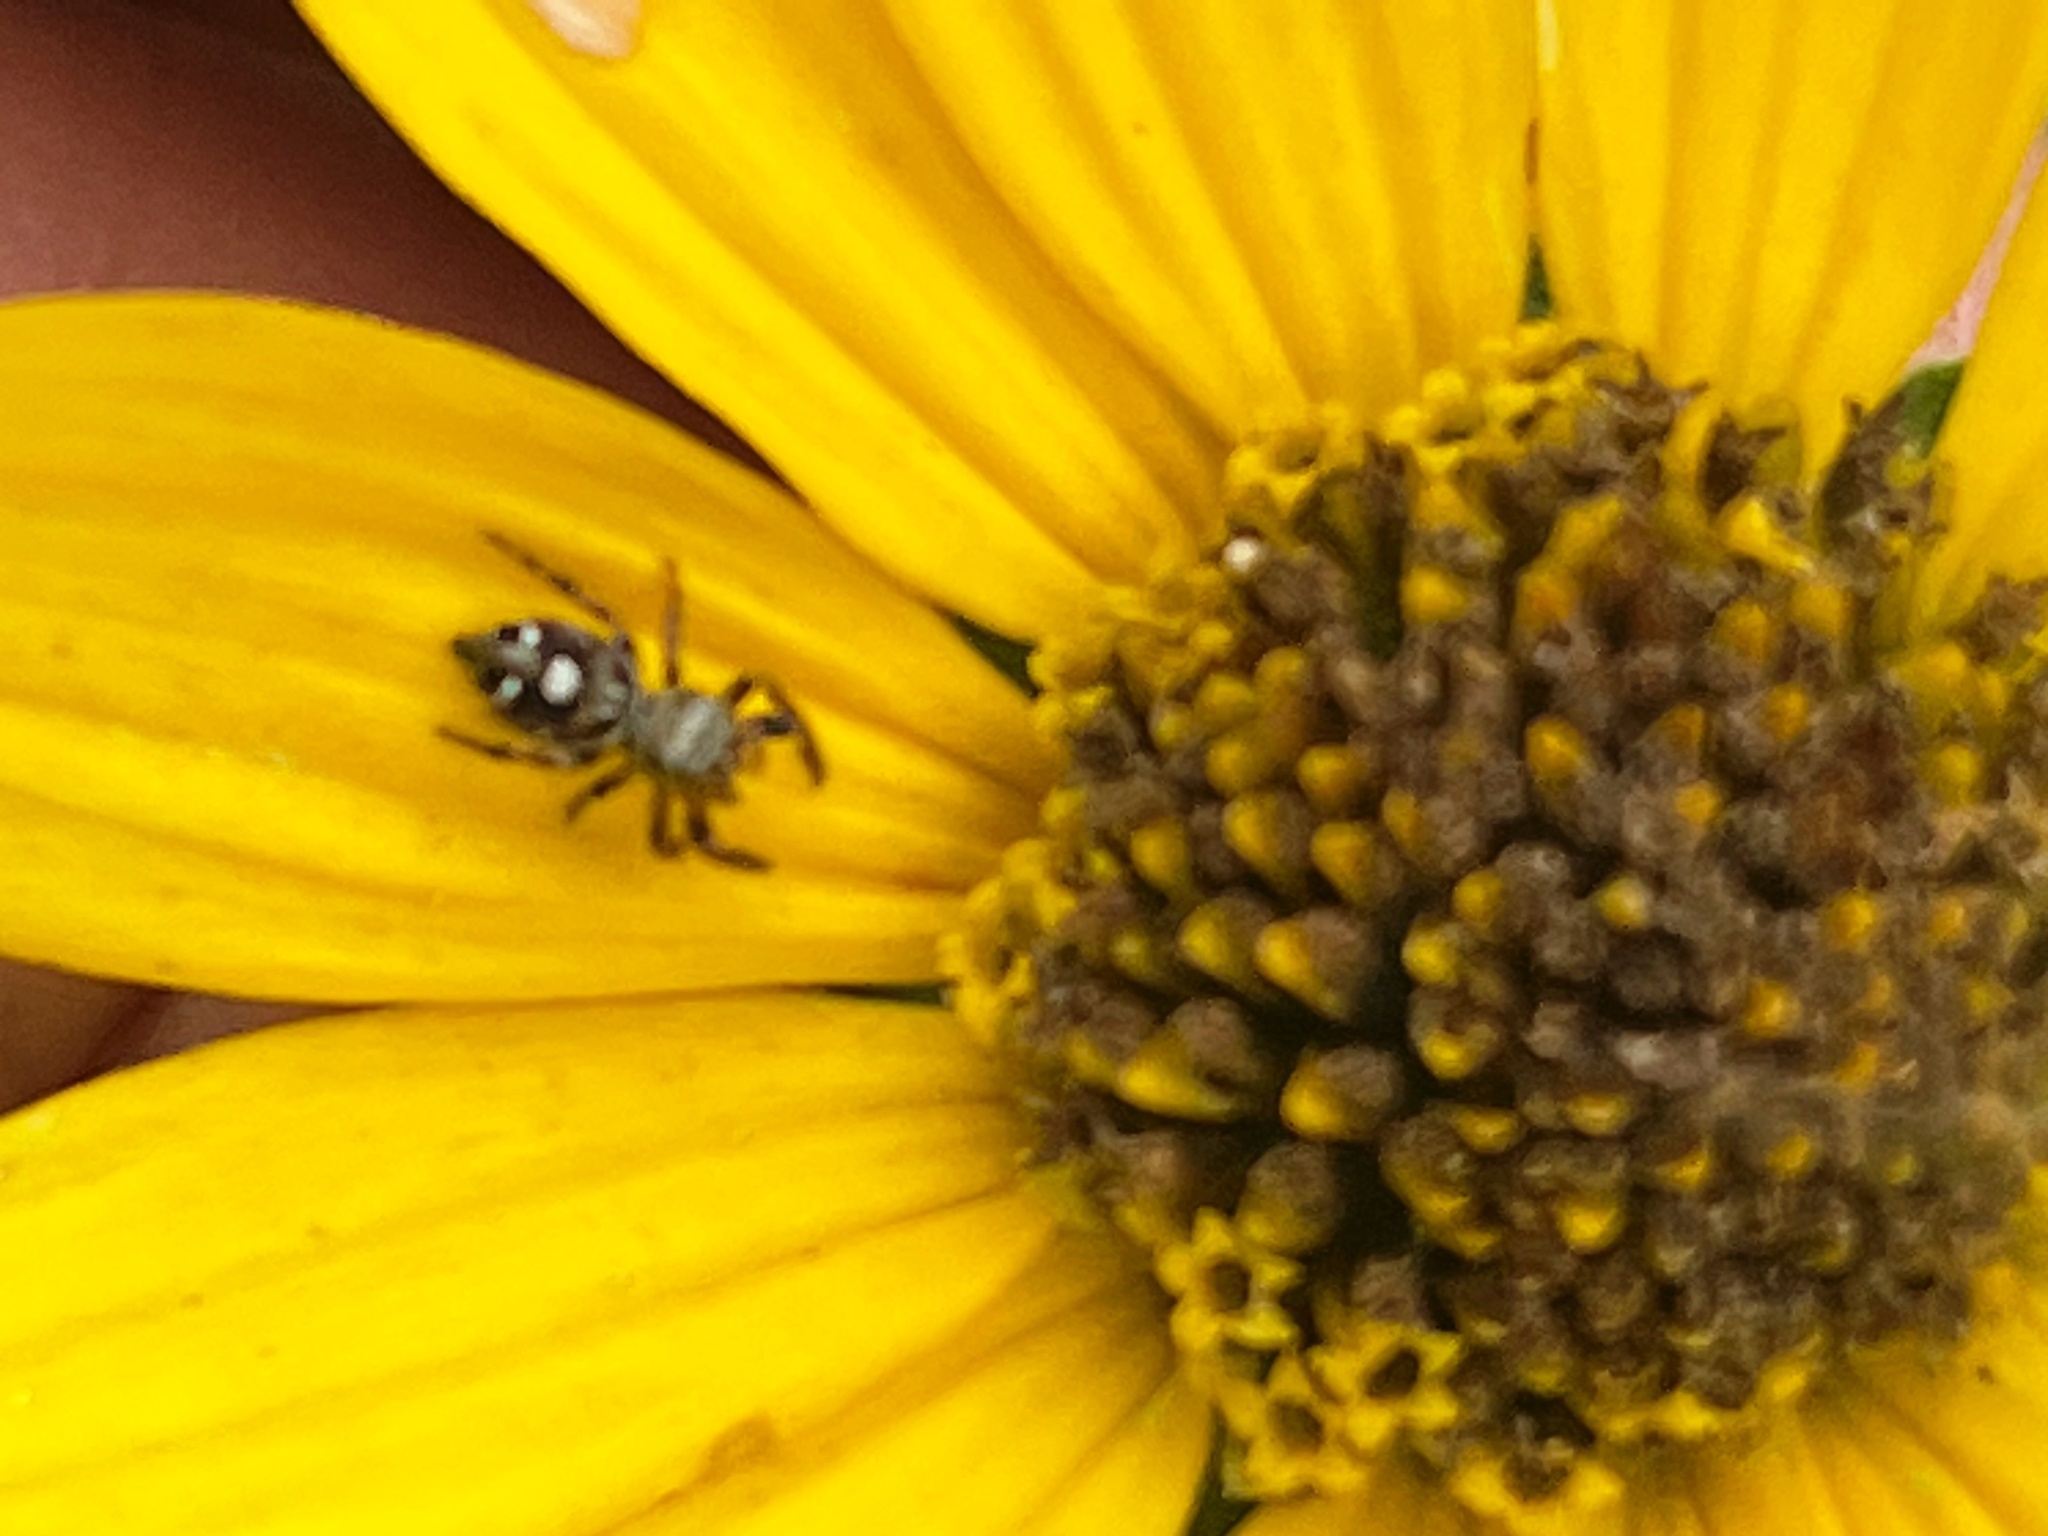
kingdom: Animalia
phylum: Arthropoda
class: Arachnida
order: Araneae
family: Salticidae
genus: Phidippus
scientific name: Phidippus audax
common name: Bold jumper
